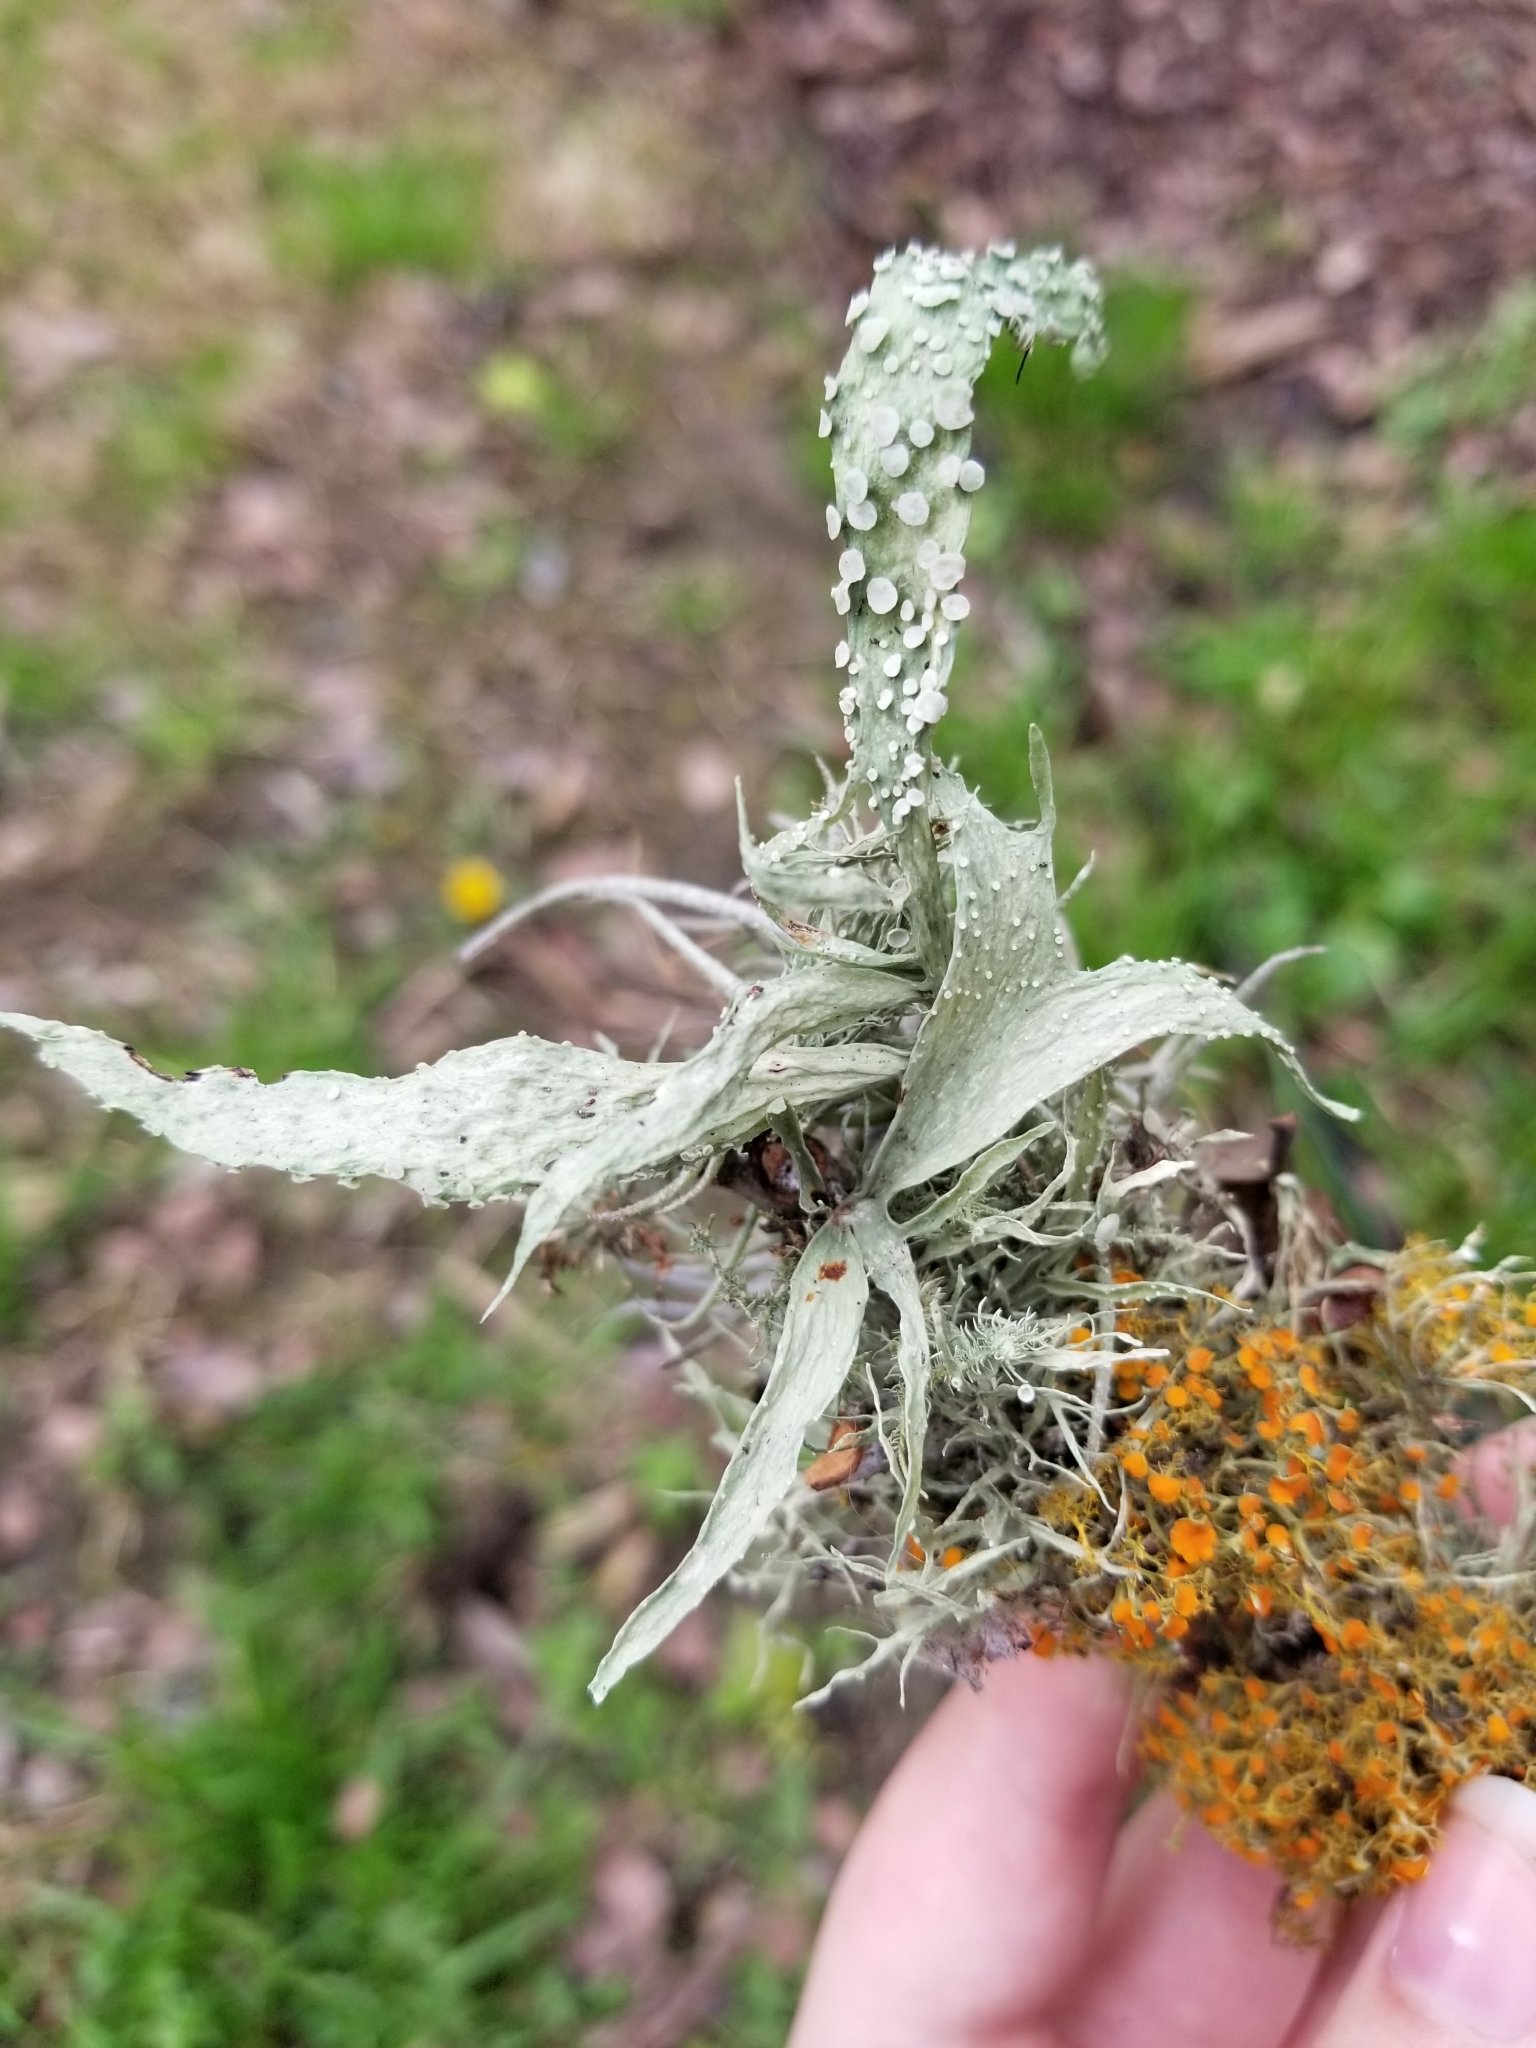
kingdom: Fungi
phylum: Ascomycota
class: Lecanoromycetes
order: Lecanorales
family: Ramalinaceae
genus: Ramalina
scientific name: Ramalina celastri
